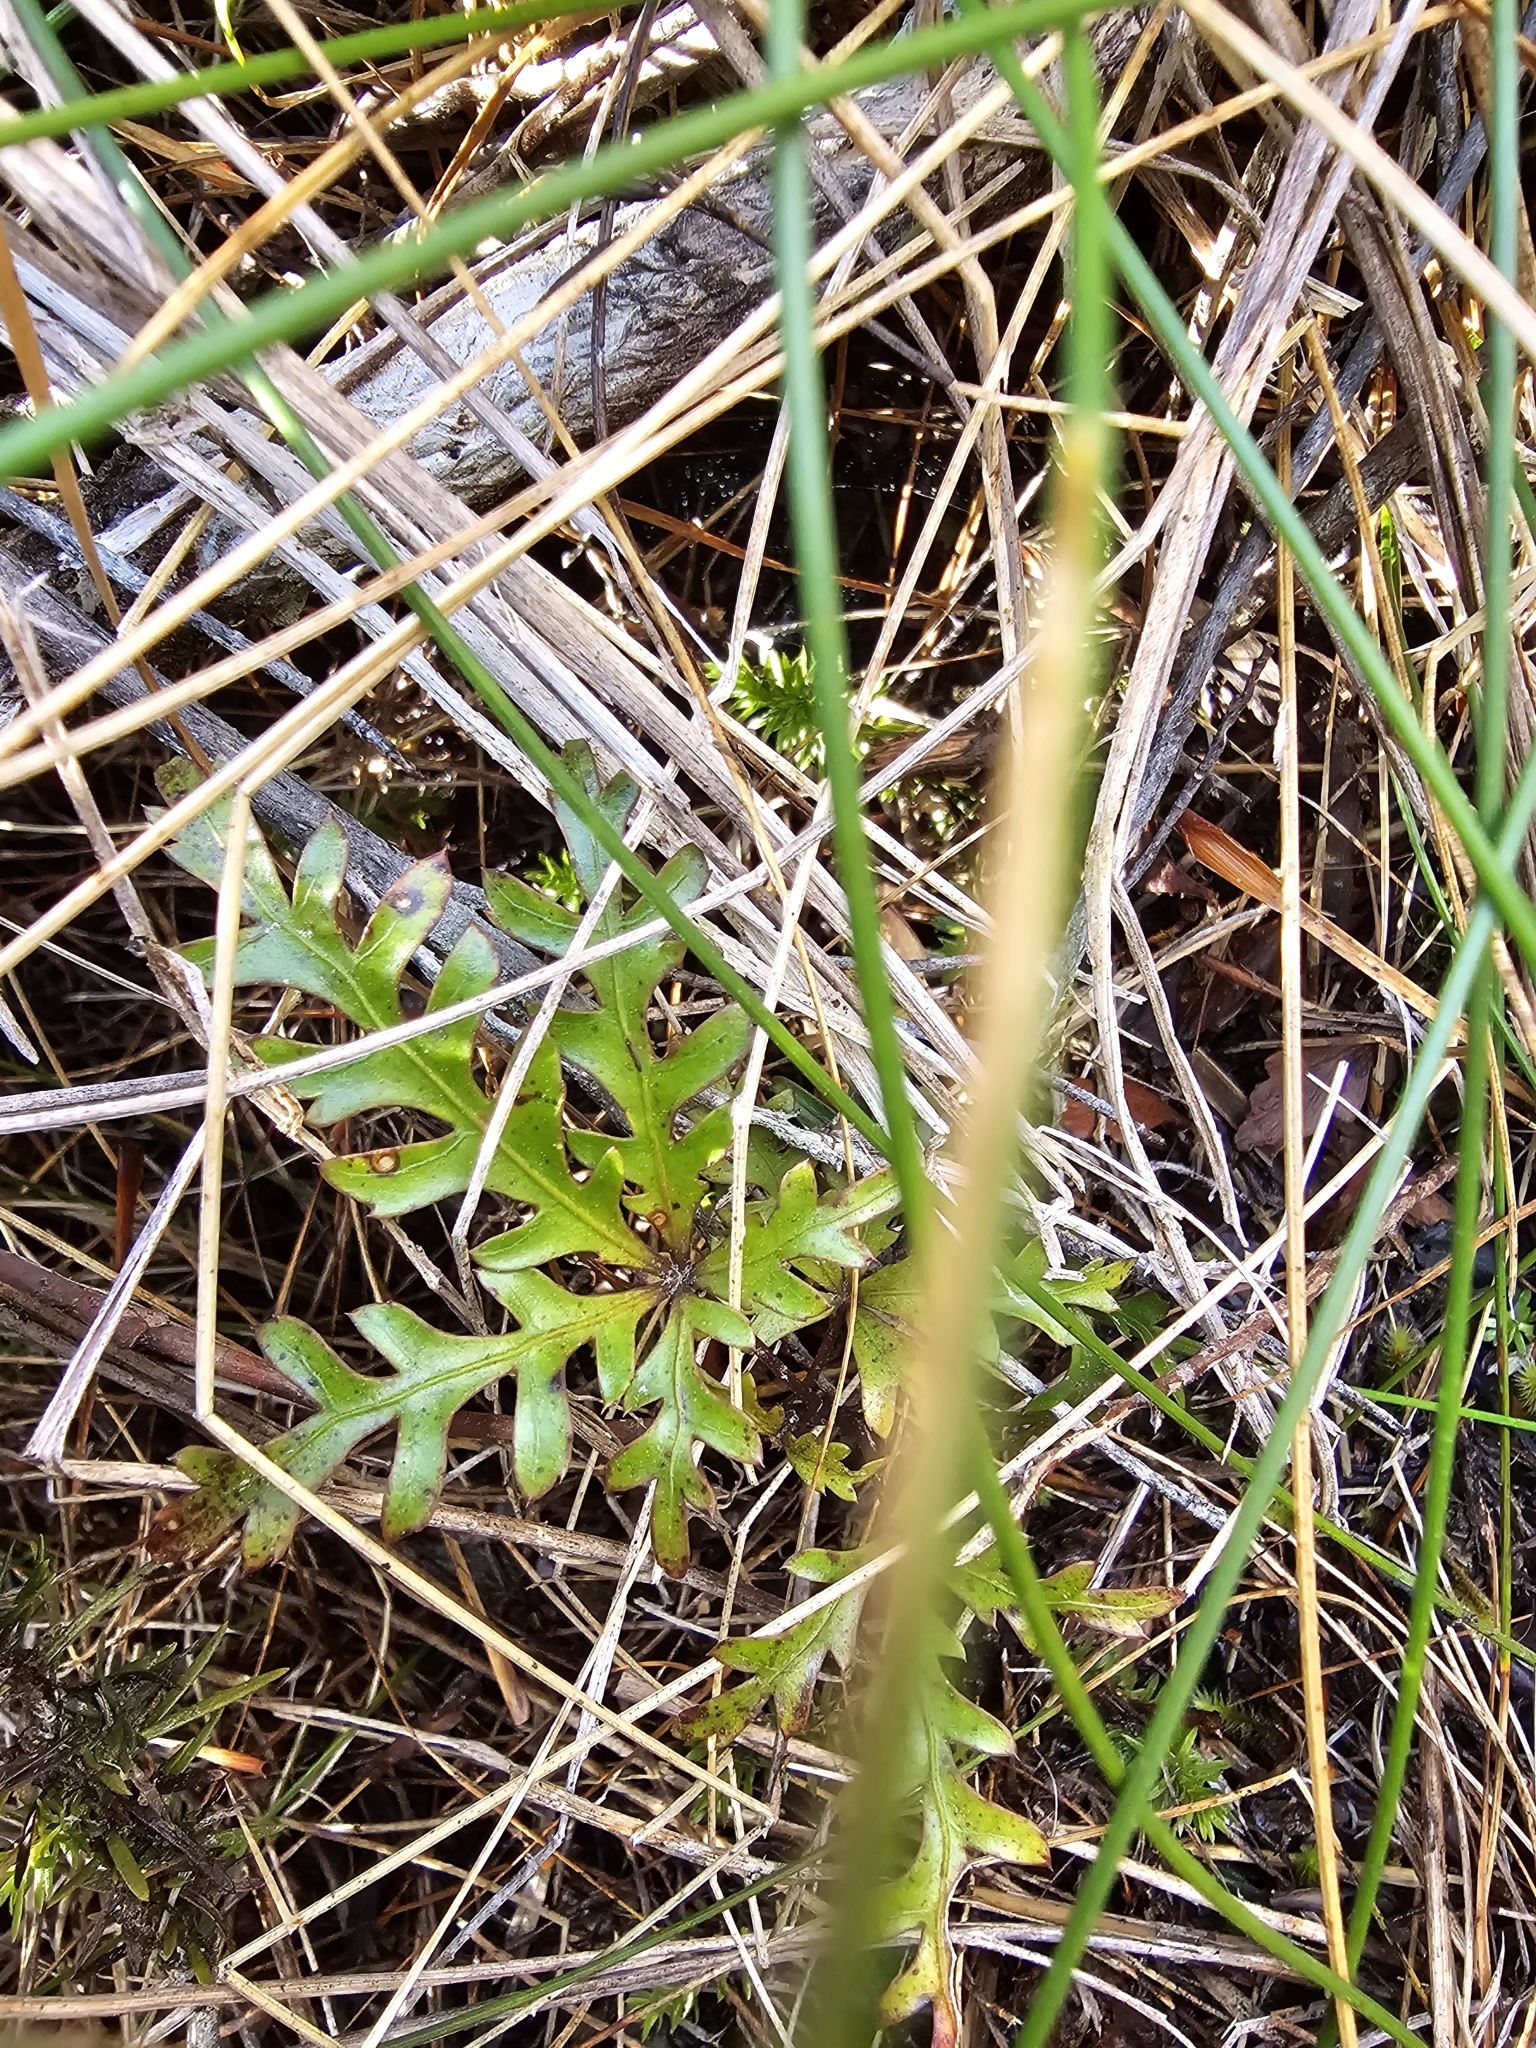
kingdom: Plantae
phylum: Tracheophyta
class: Magnoliopsida
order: Apiales
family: Araliaceae
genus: Raukaua
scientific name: Raukaua simplex
